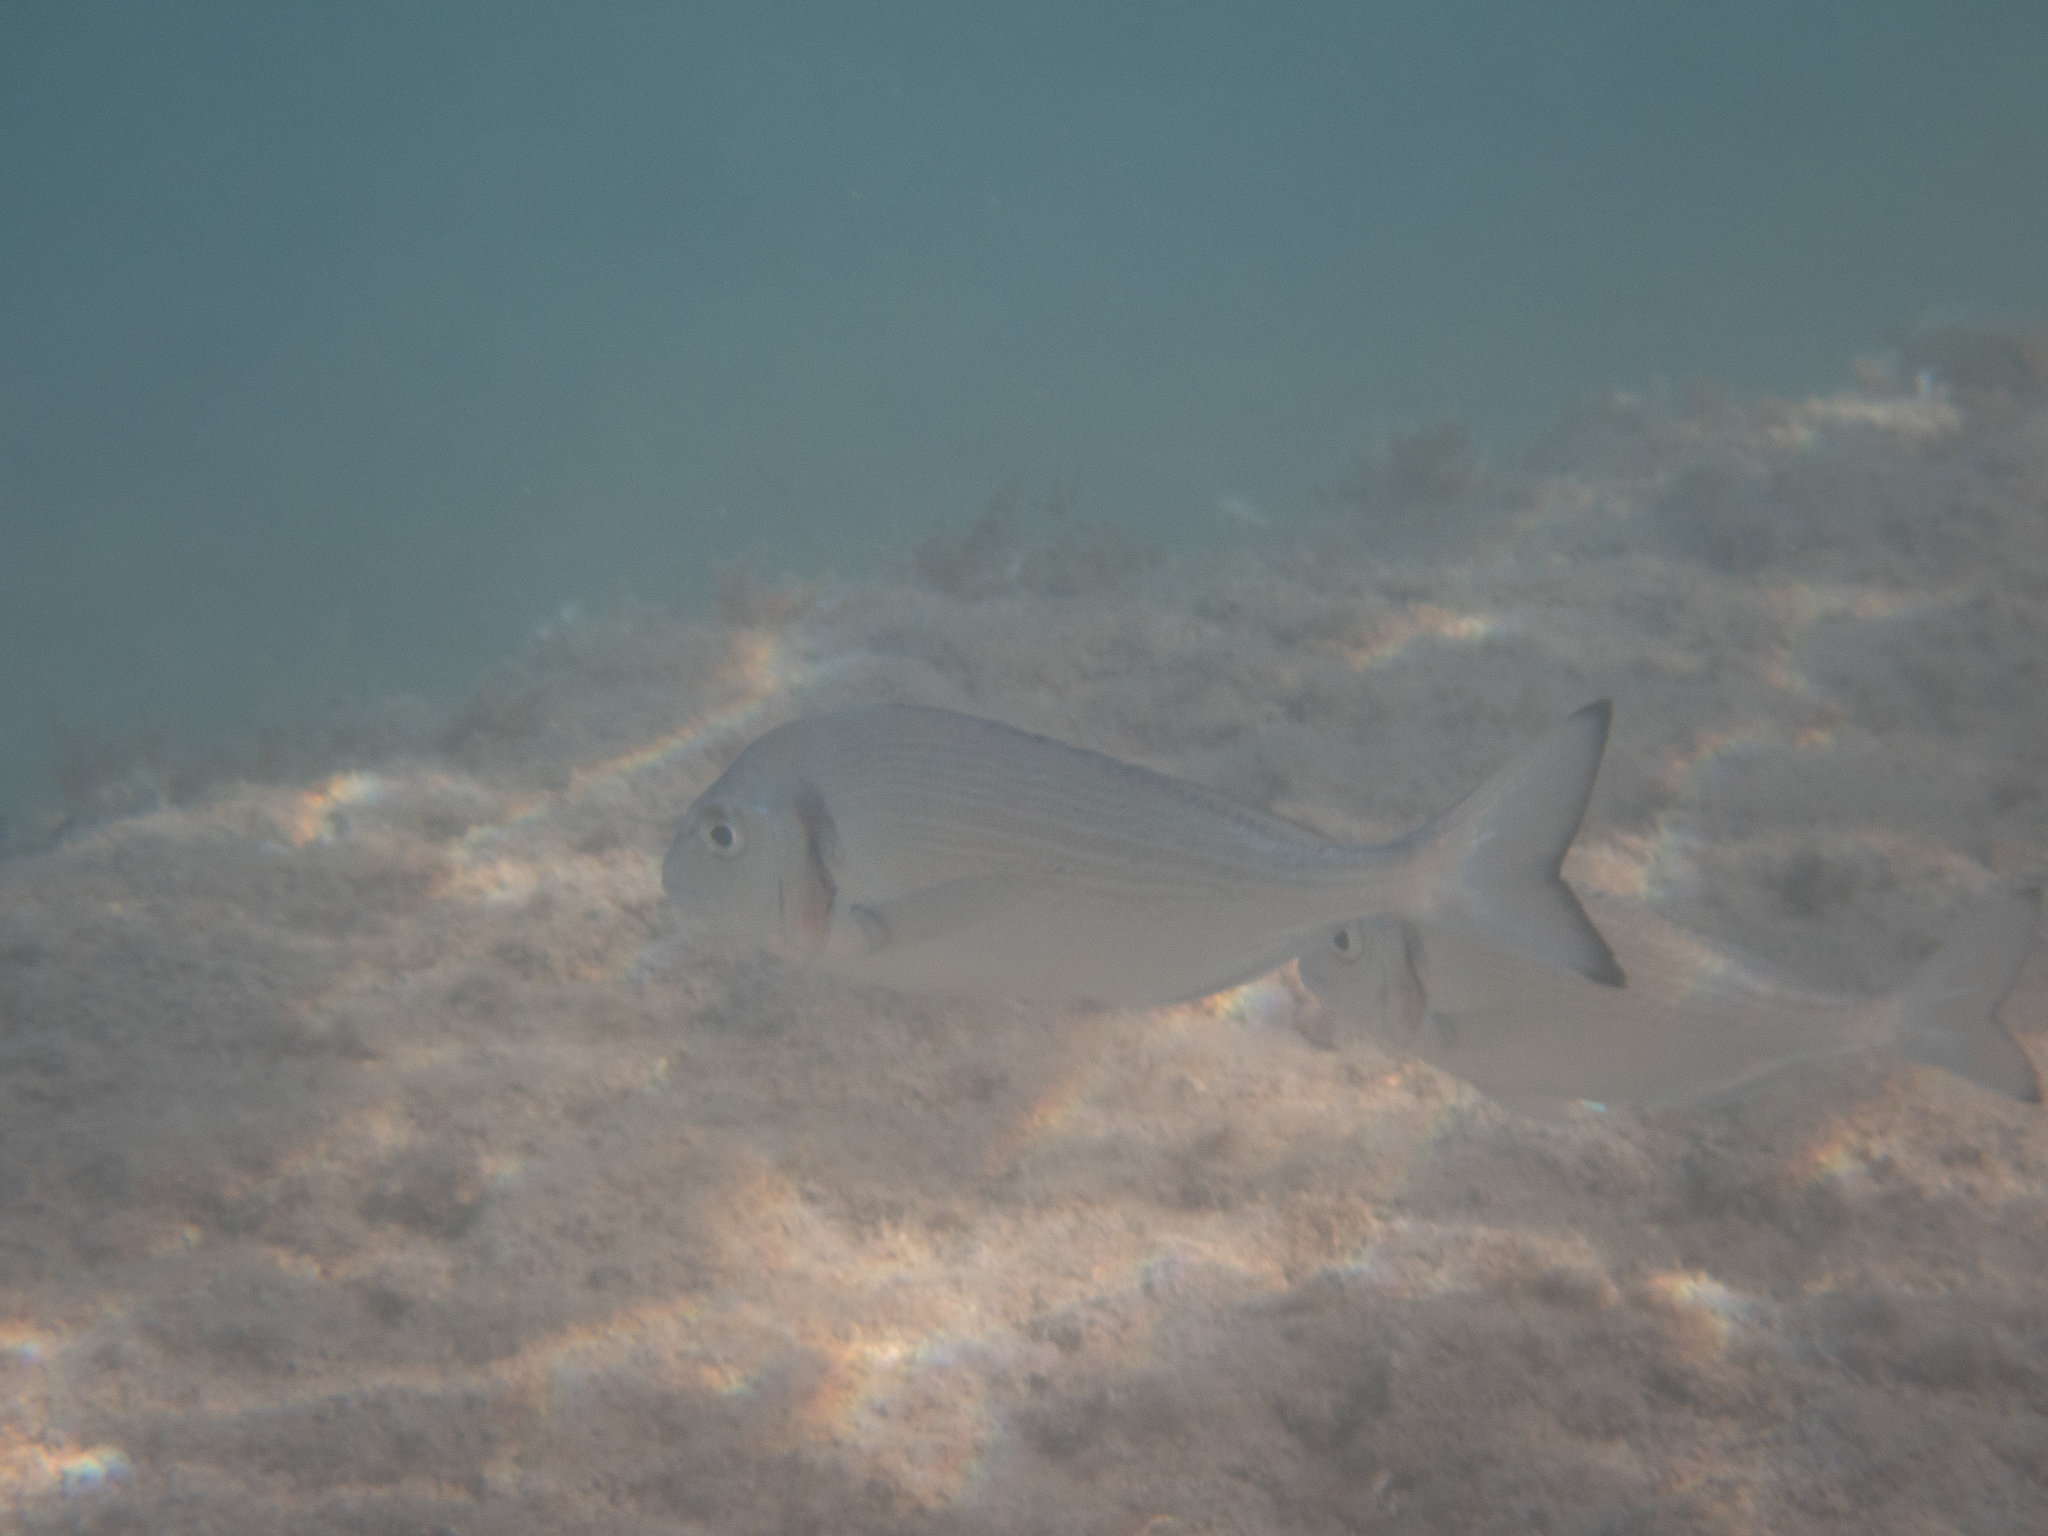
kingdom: Animalia
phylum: Chordata
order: Perciformes
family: Sparidae
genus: Sparus
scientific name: Sparus aurata
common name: Gilthead
